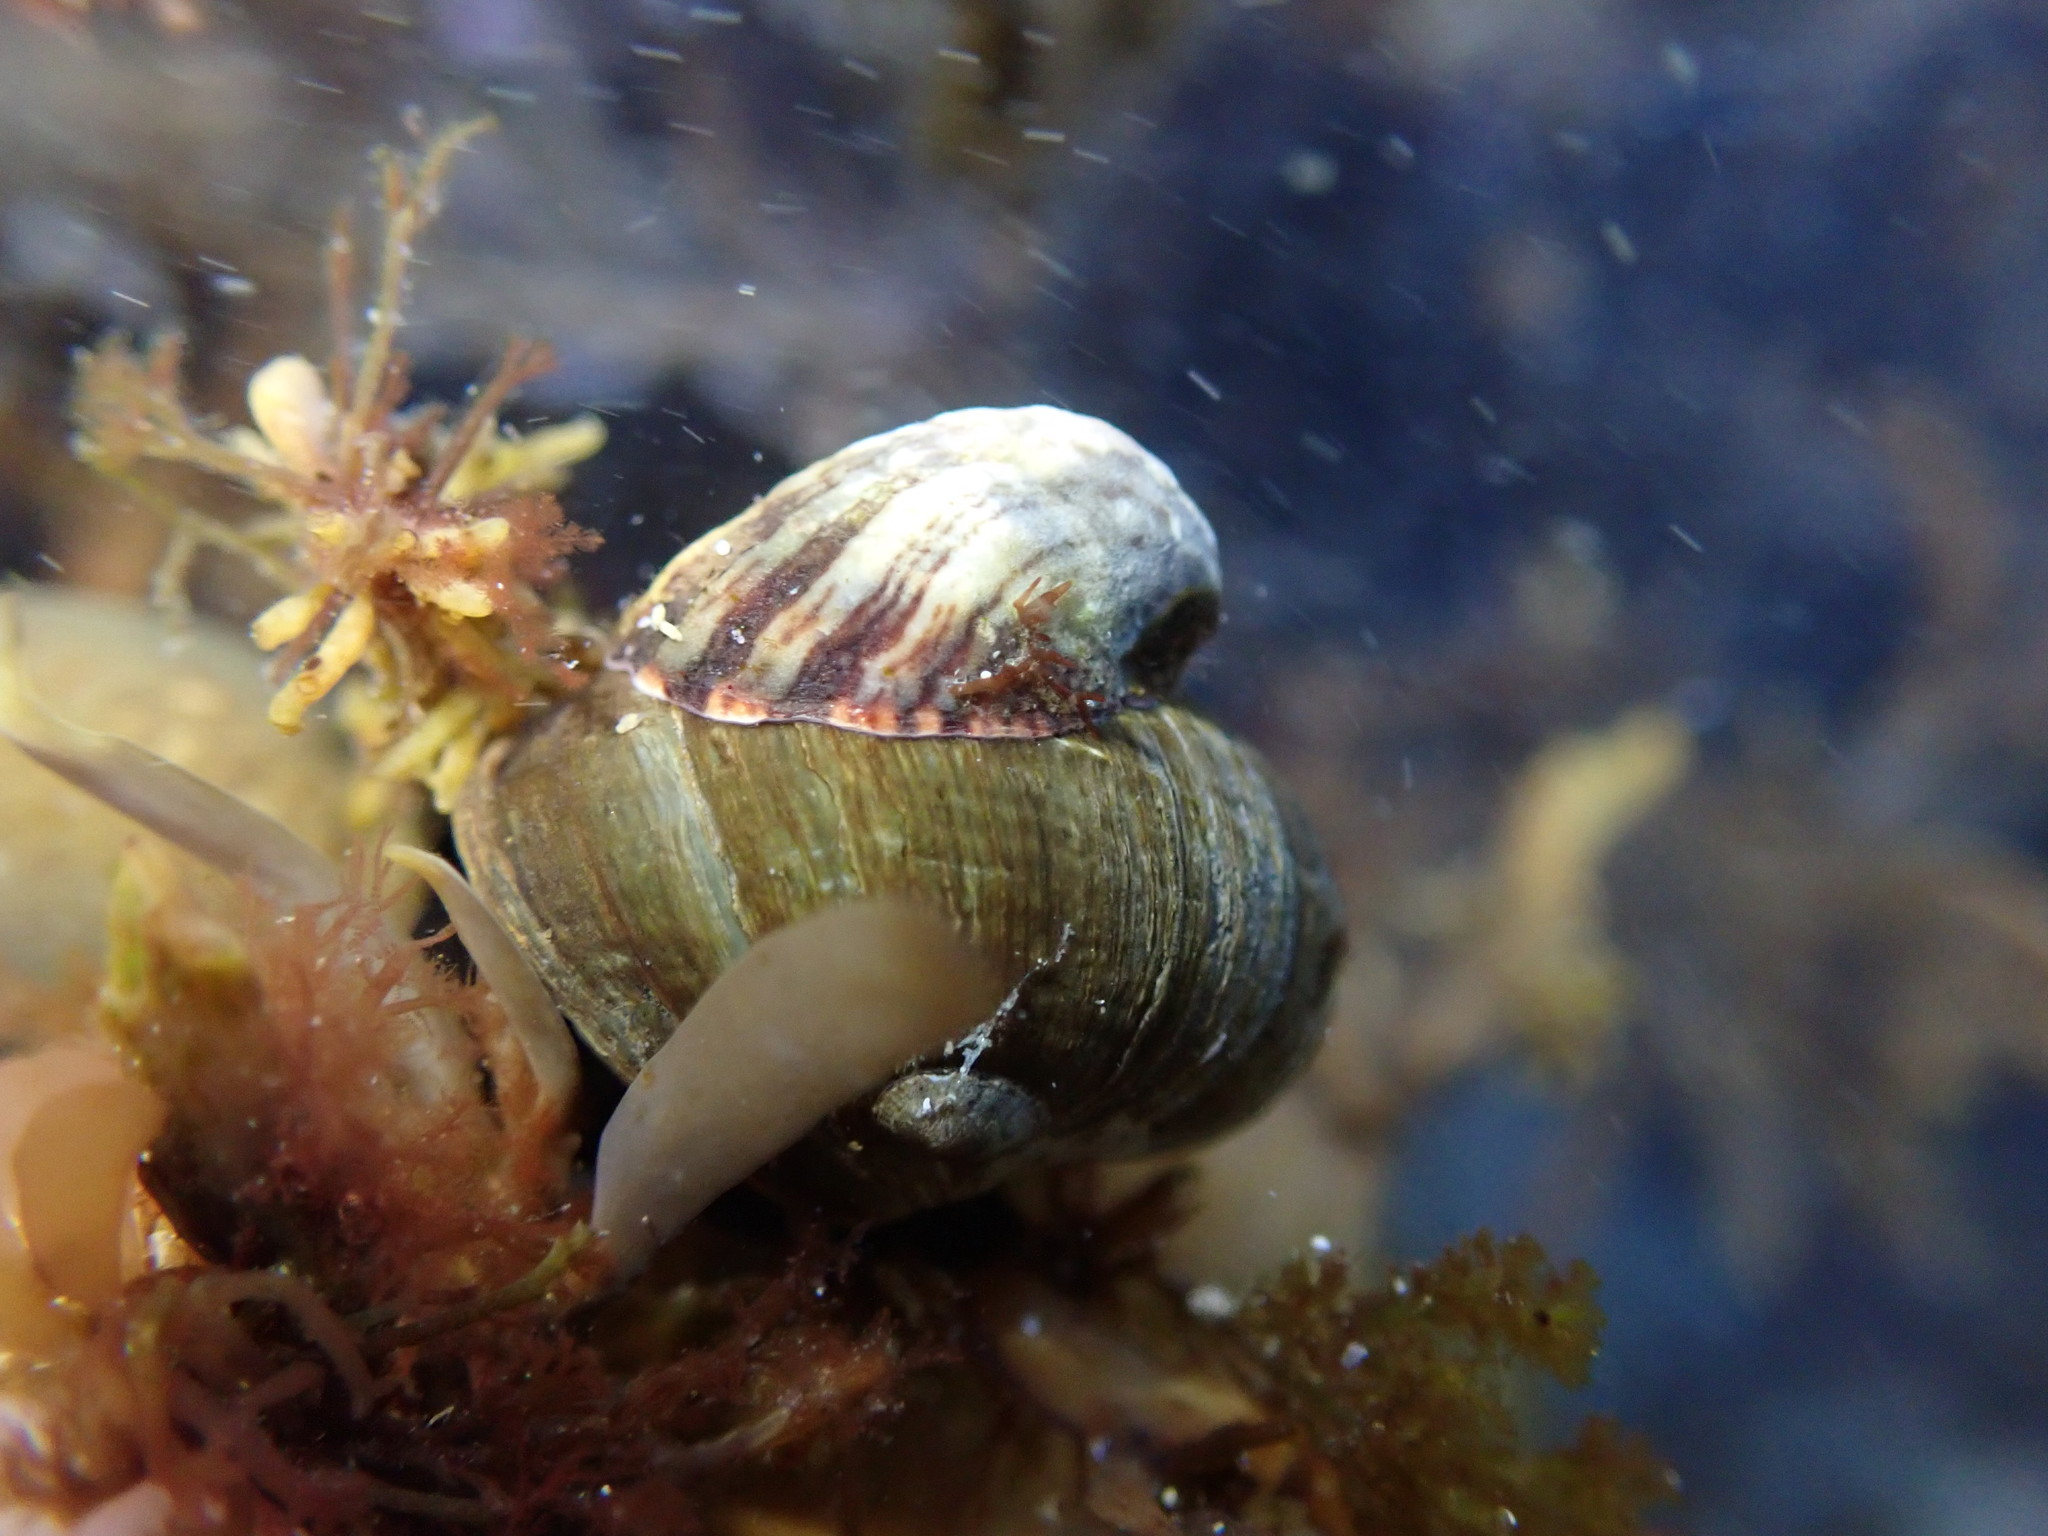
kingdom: Animalia
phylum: Mollusca
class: Gastropoda
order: Littorinimorpha
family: Calyptraeidae
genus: Maoricrypta
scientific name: Maoricrypta costata
